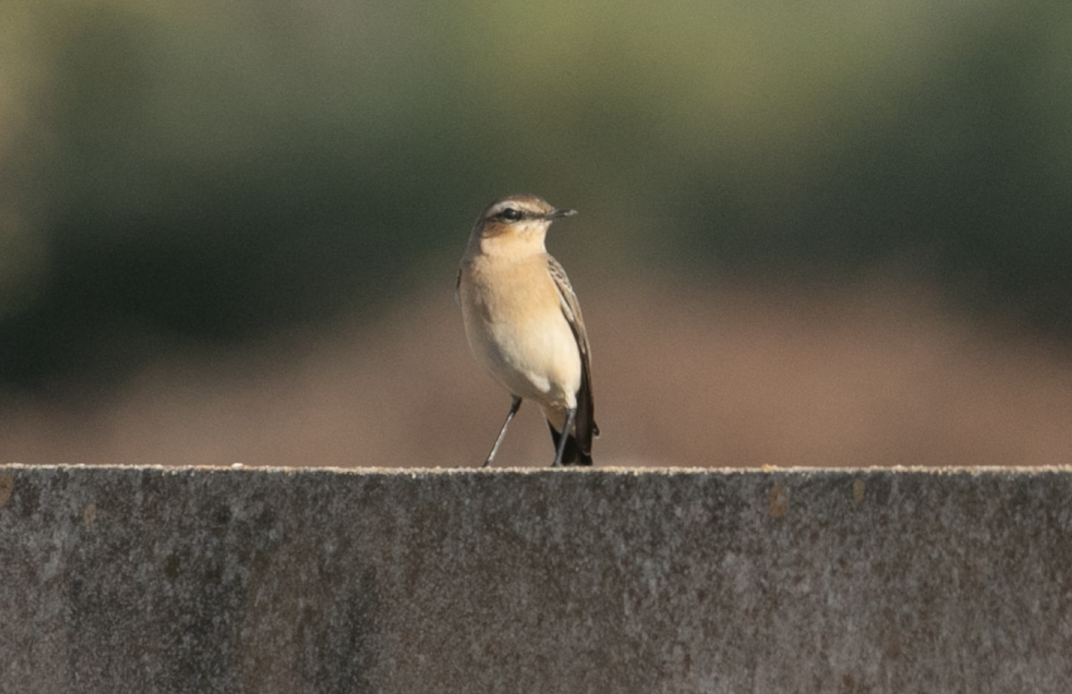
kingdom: Animalia
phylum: Chordata
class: Aves
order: Passeriformes
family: Muscicapidae
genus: Oenanthe
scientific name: Oenanthe oenanthe
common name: Northern wheatear
